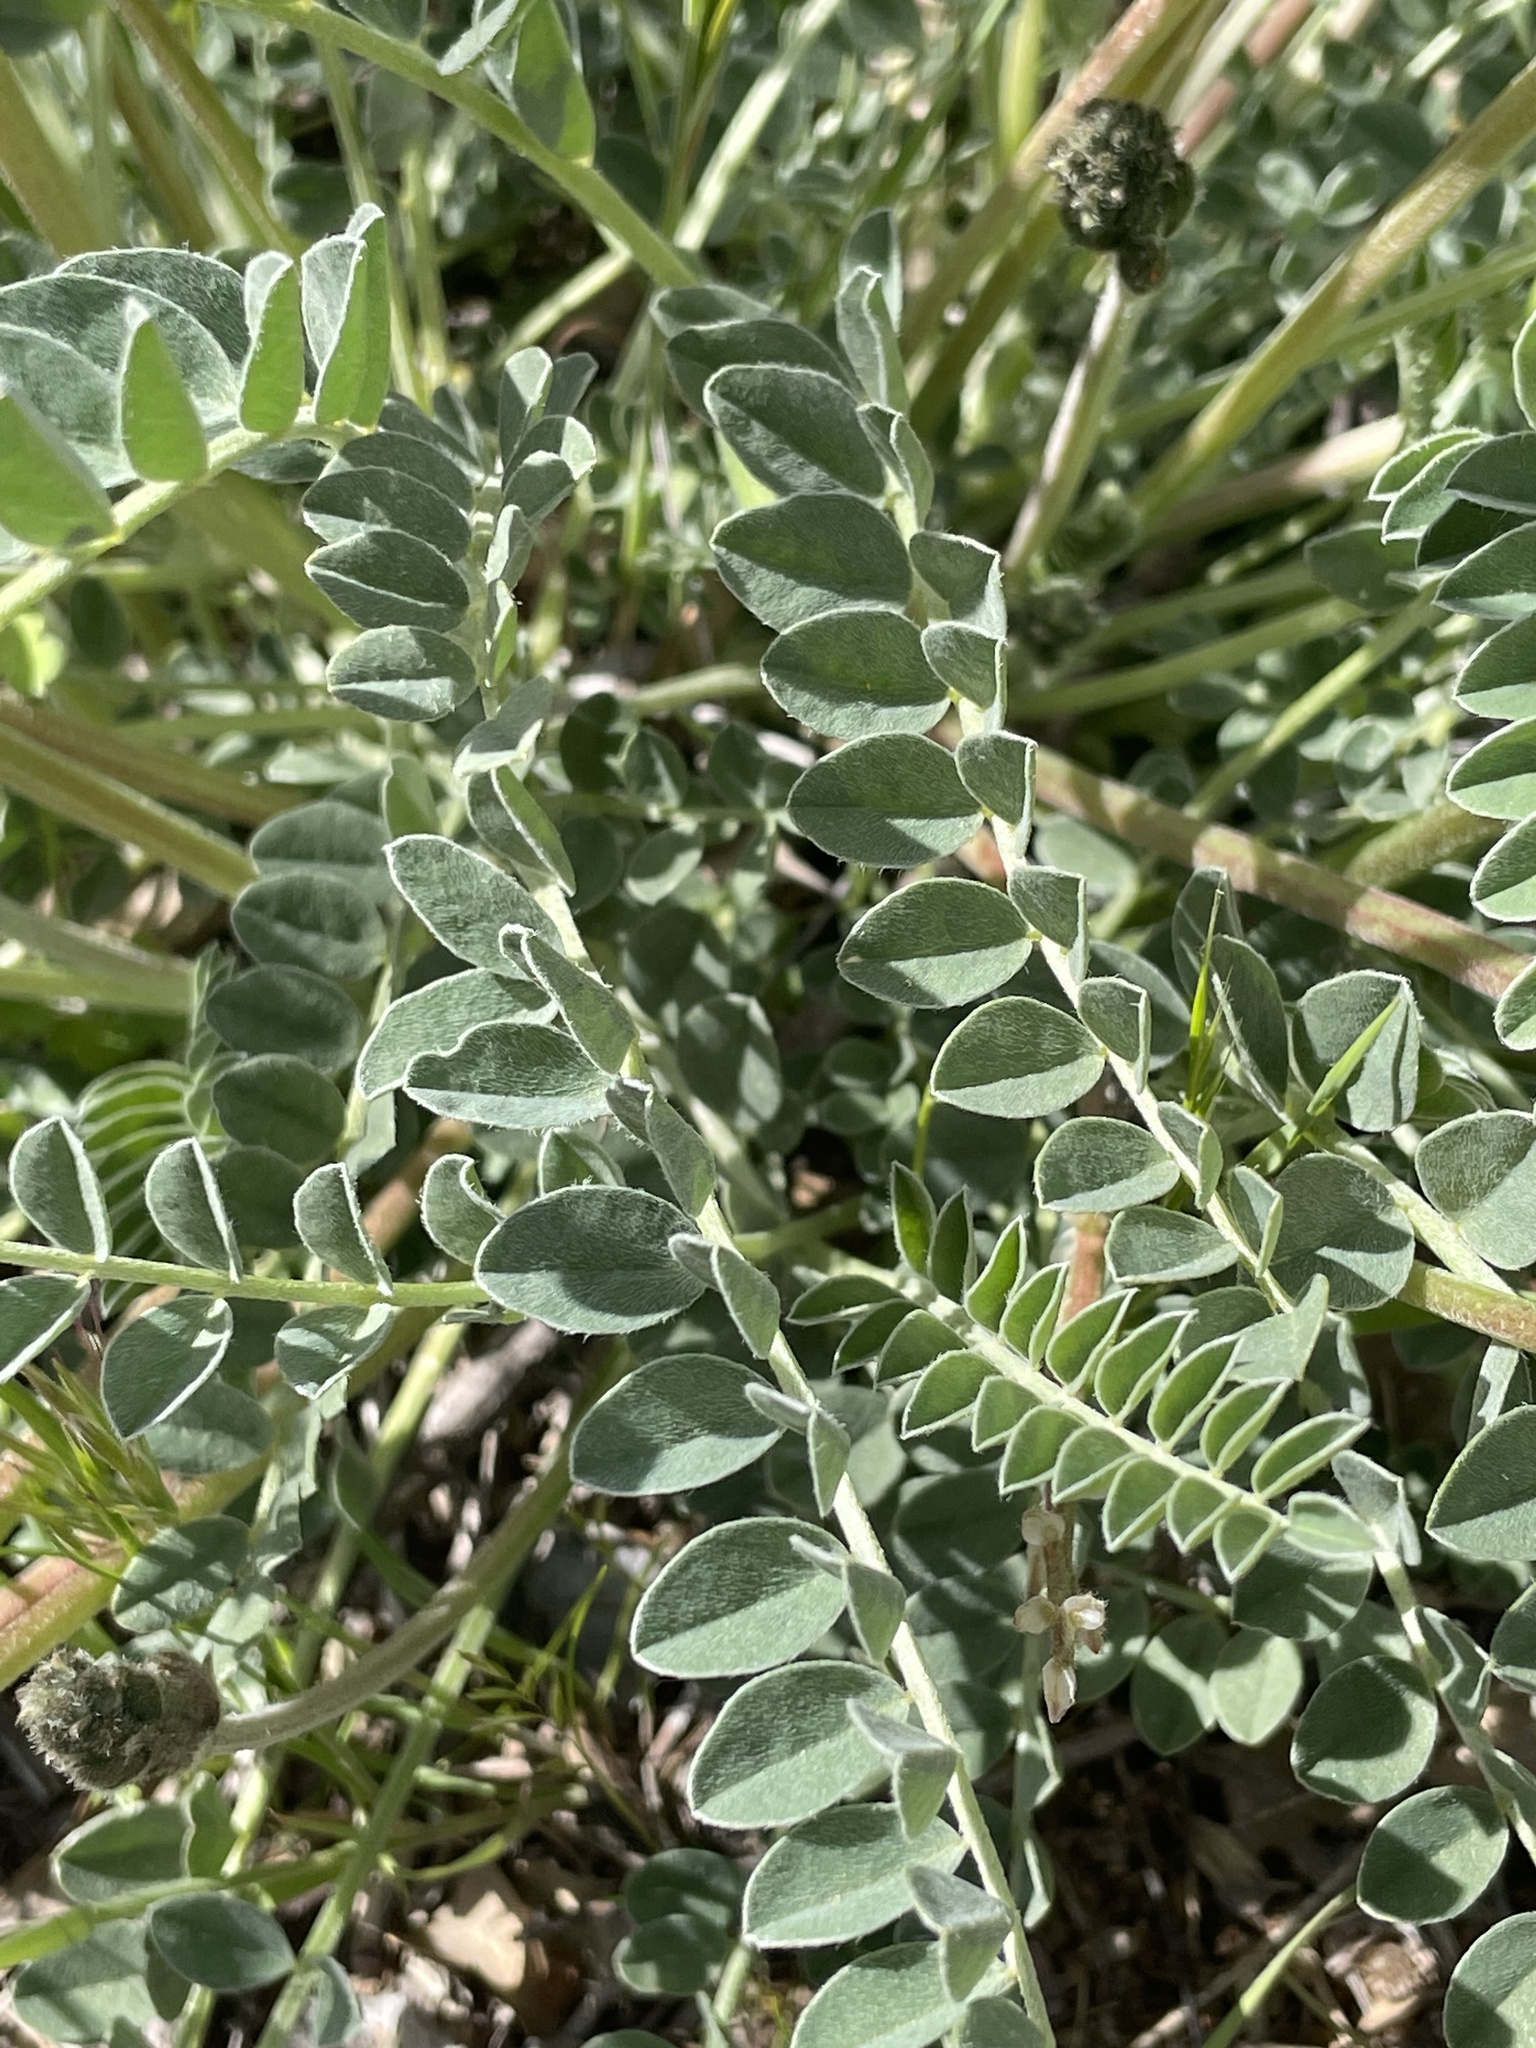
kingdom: Plantae
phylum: Tracheophyta
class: Magnoliopsida
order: Fabales
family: Fabaceae
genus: Astragalus
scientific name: Astragalus tephrodes
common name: Ashen milk-vetch
